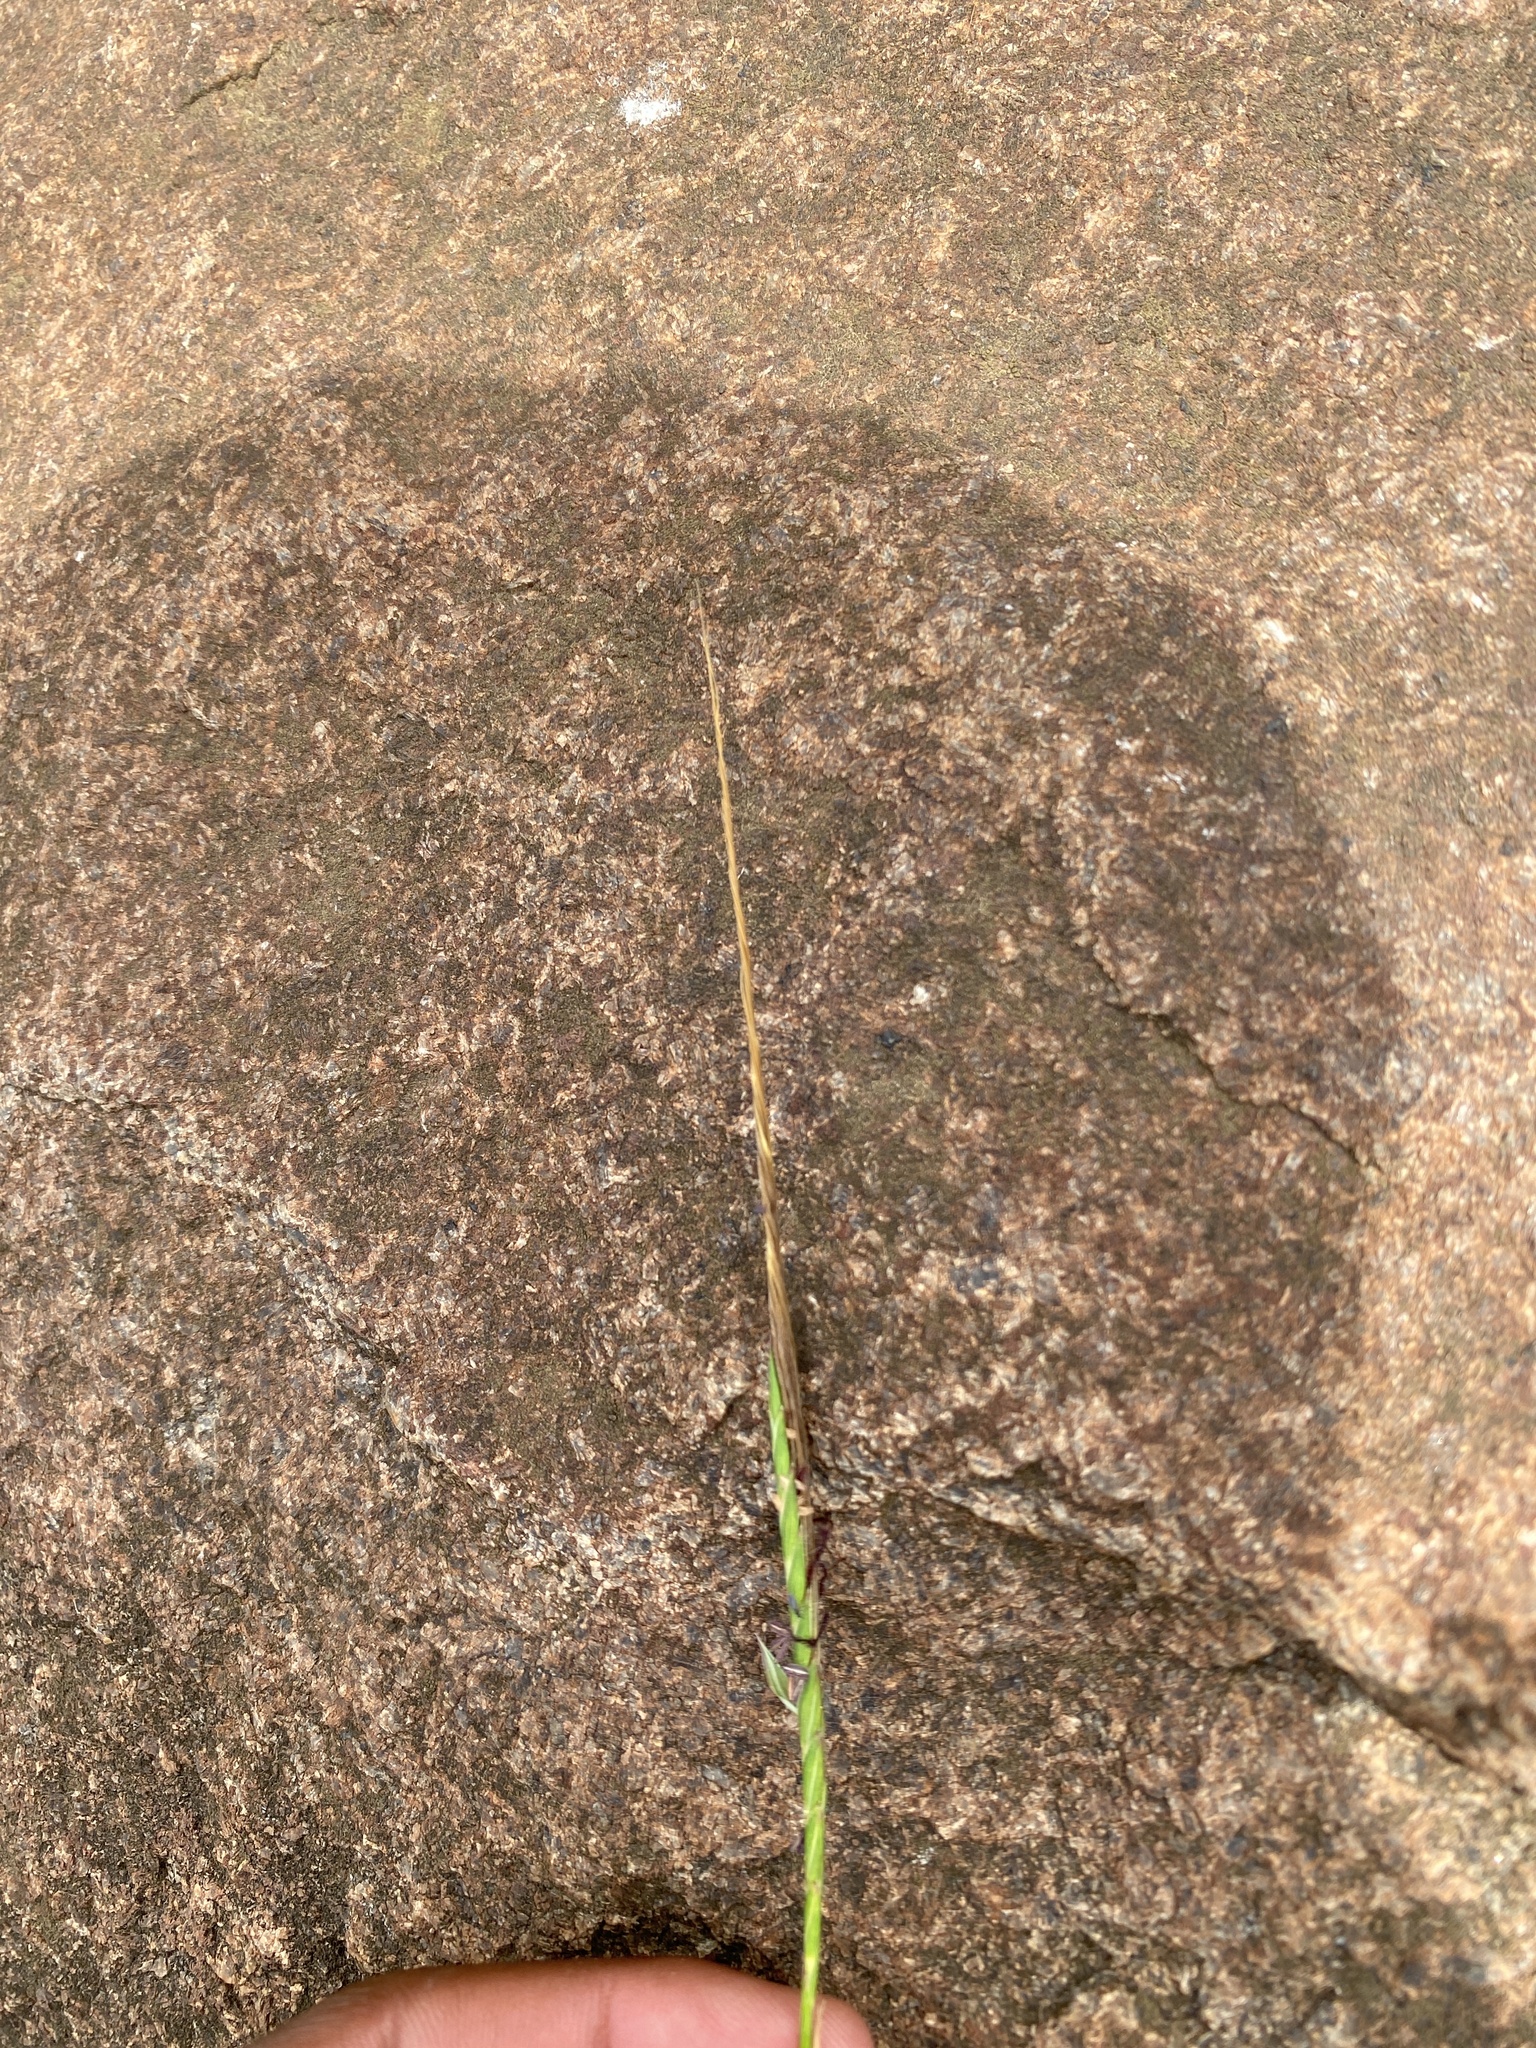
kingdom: Plantae
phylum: Tracheophyta
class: Liliopsida
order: Poales
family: Poaceae
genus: Heteropogon
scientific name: Heteropogon contortus
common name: Tanglehead
